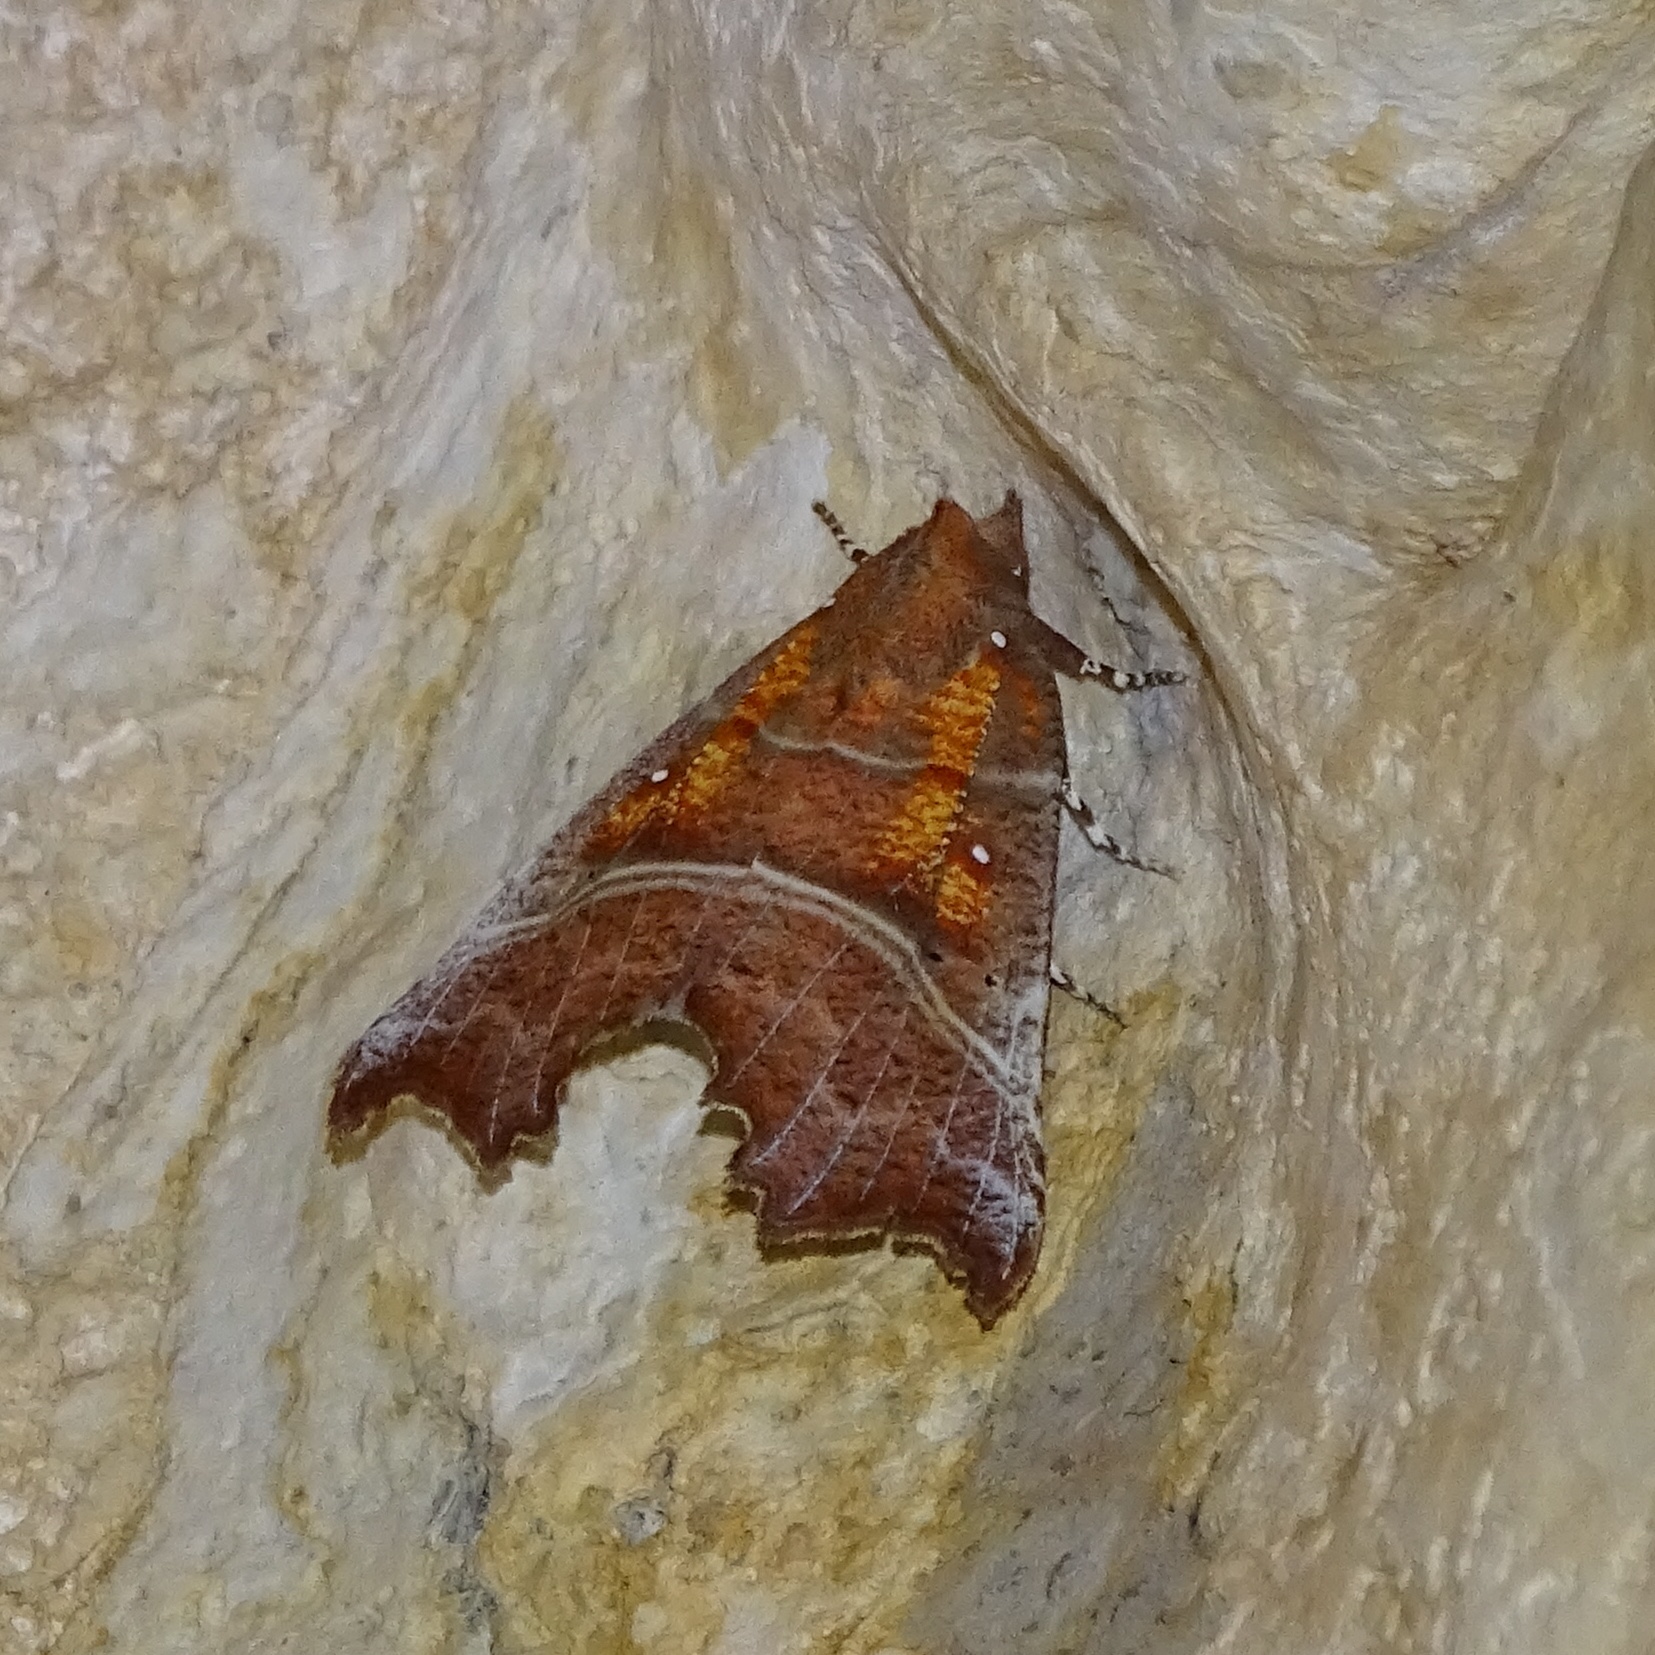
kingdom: Animalia
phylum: Arthropoda
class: Insecta
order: Lepidoptera
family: Erebidae
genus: Scoliopteryx
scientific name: Scoliopteryx libatrix
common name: Herald
